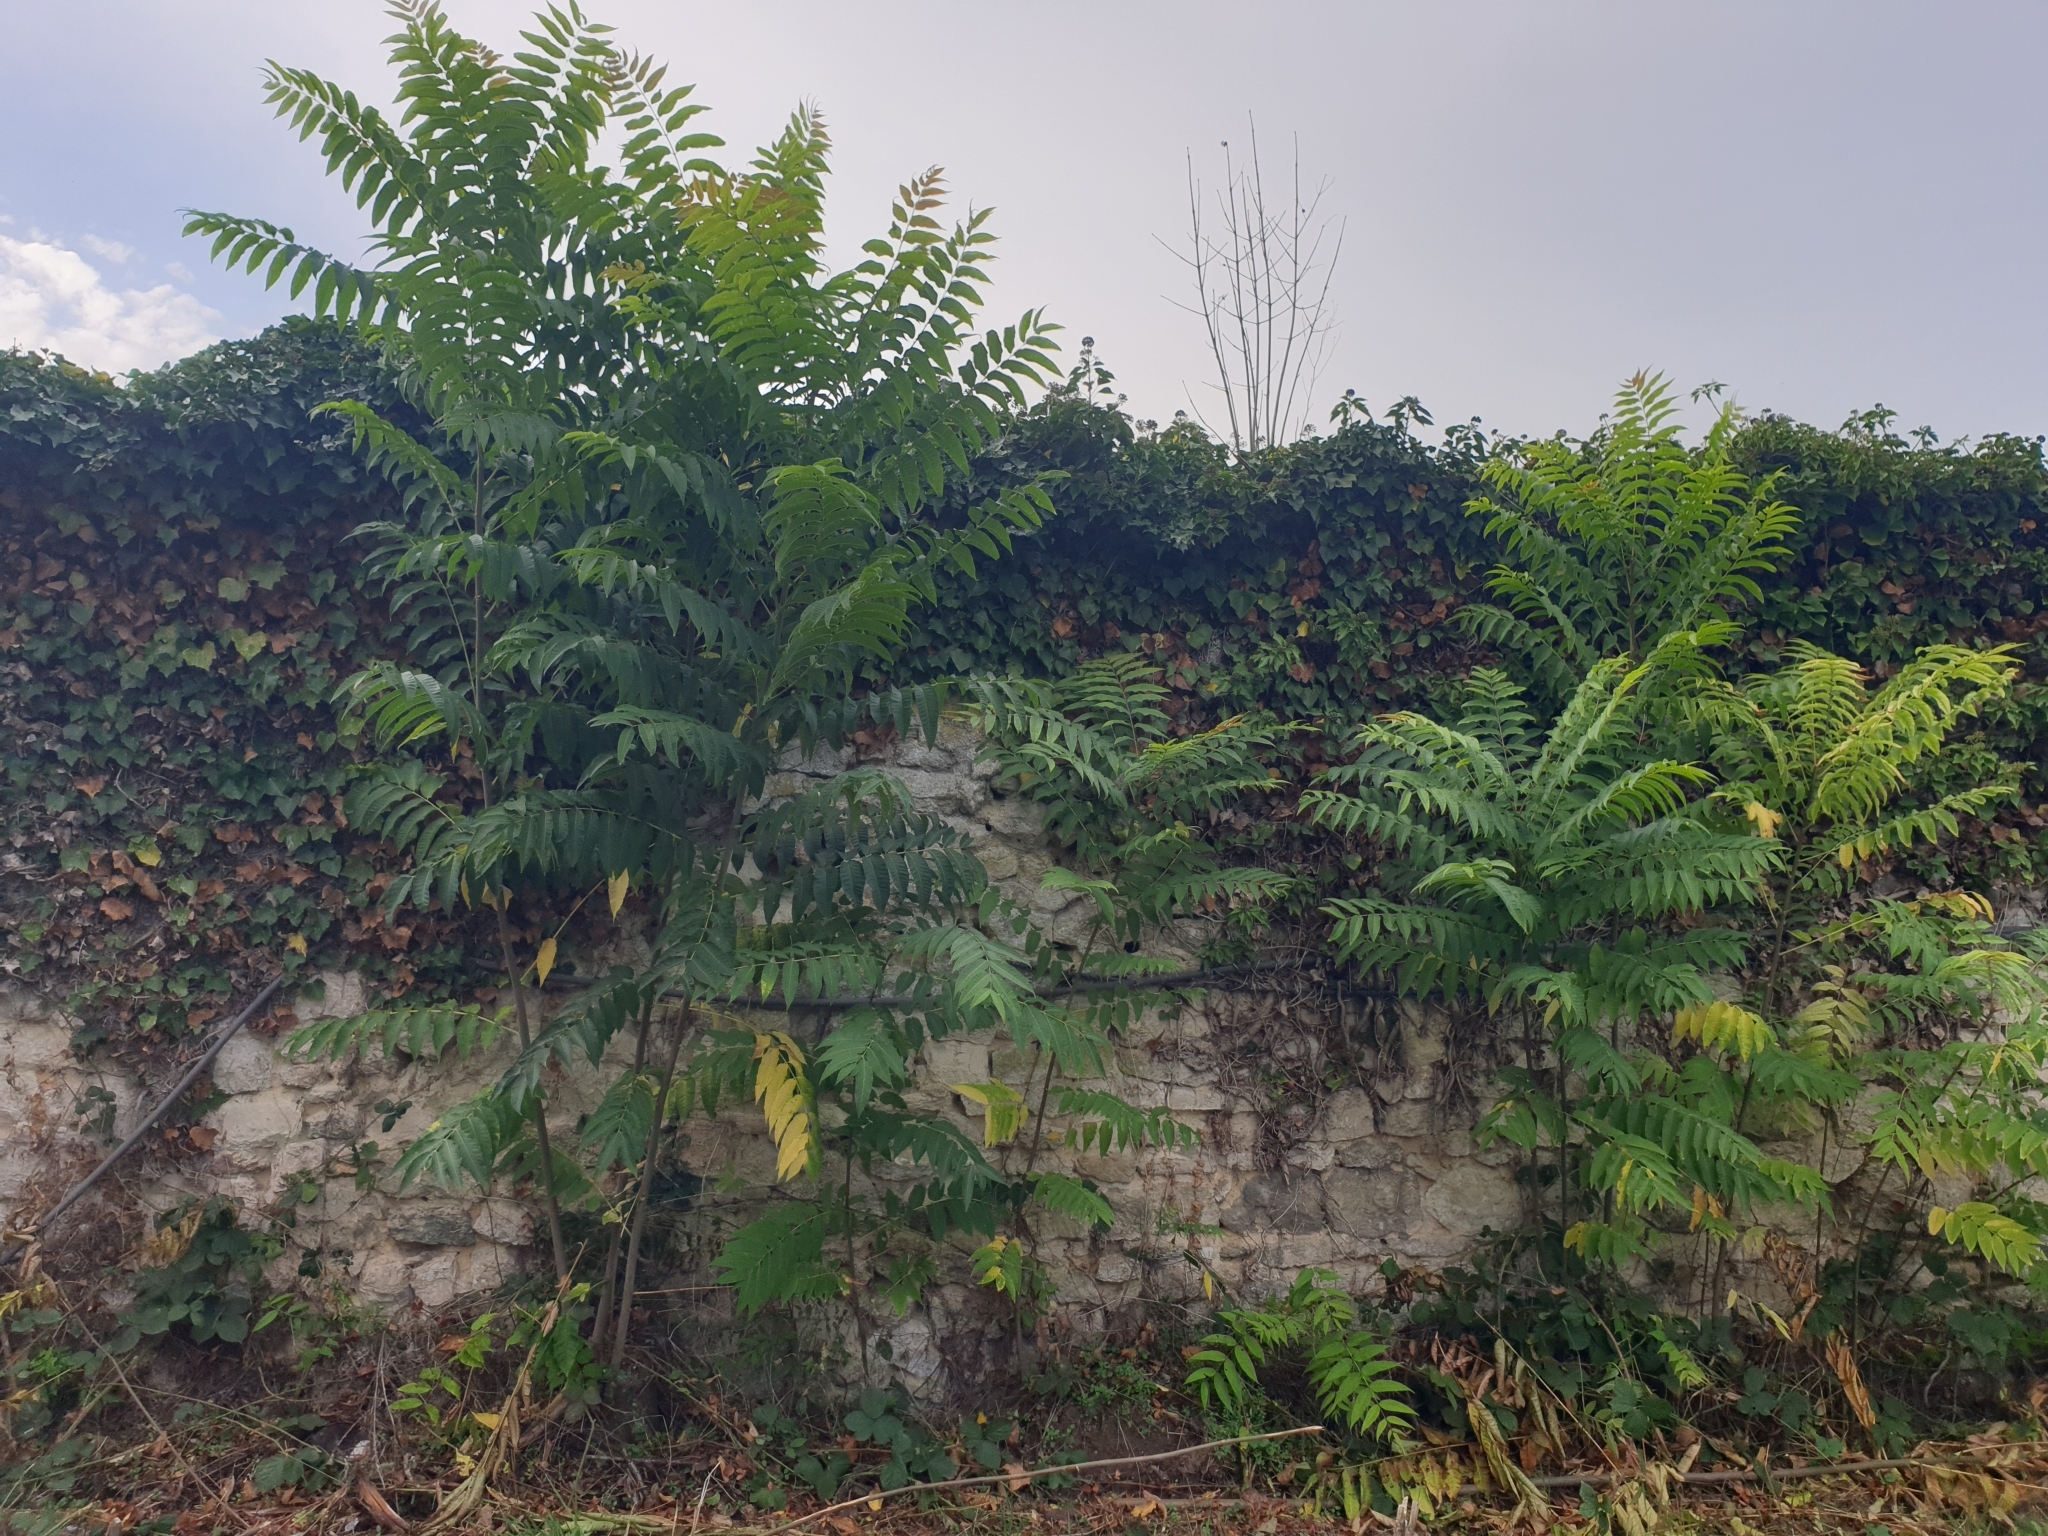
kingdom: Plantae
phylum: Tracheophyta
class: Magnoliopsida
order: Sapindales
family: Simaroubaceae
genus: Ailanthus
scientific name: Ailanthus altissima
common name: Tree-of-heaven
